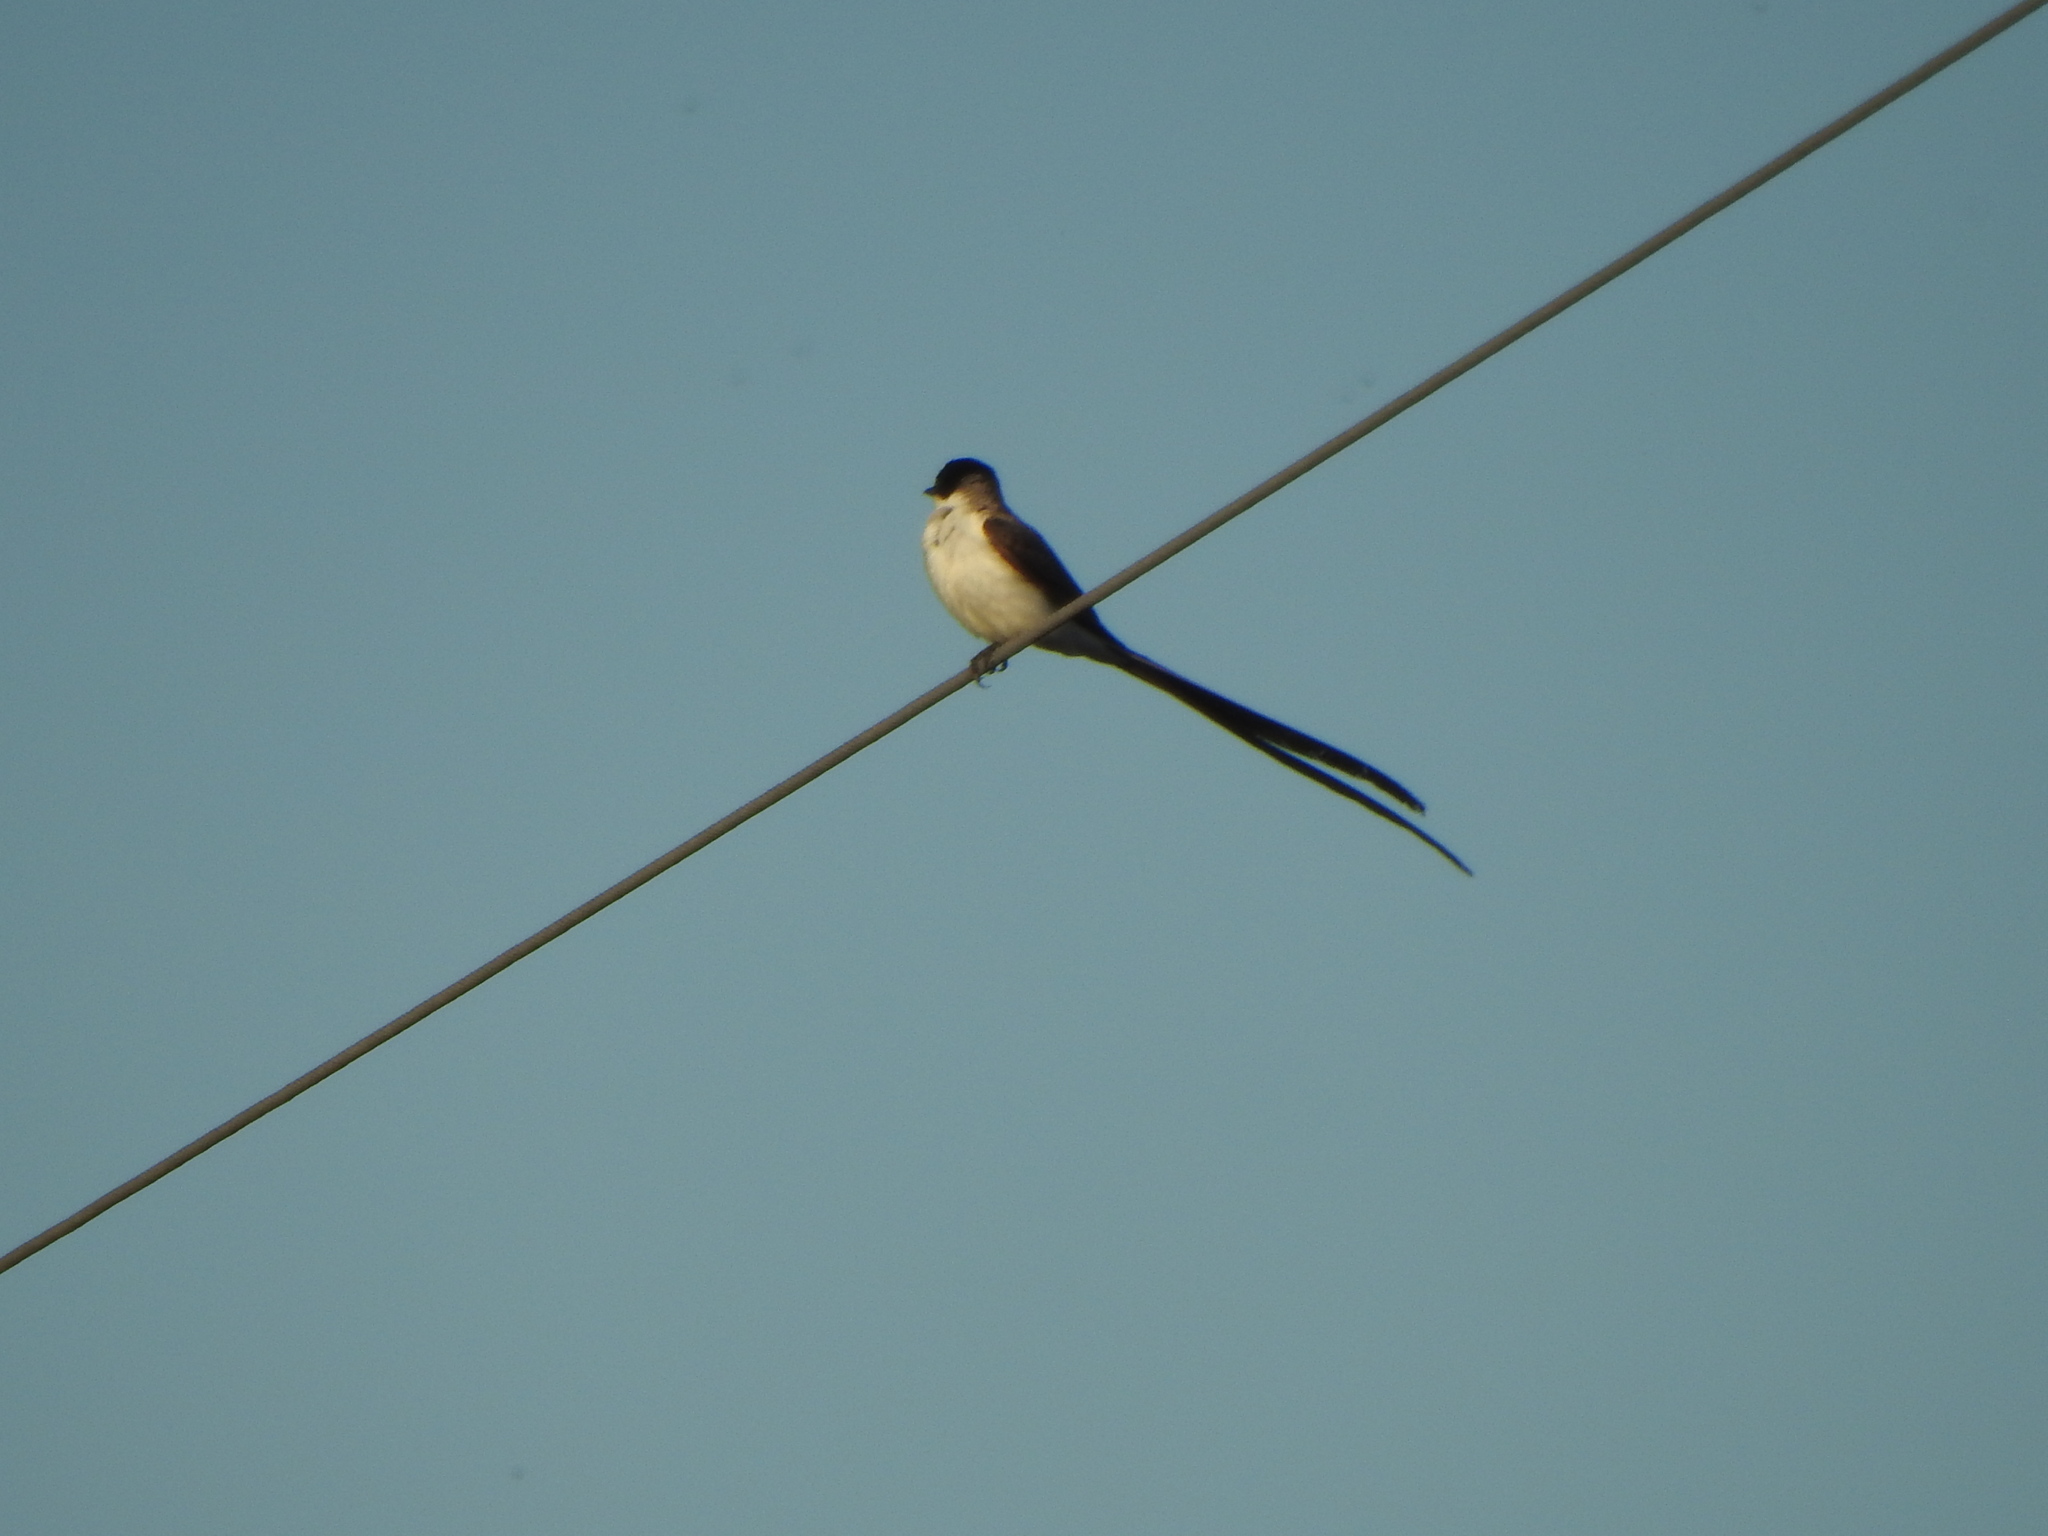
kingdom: Animalia
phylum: Chordata
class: Aves
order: Passeriformes
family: Tyrannidae
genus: Tyrannus
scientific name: Tyrannus savana
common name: Fork-tailed flycatcher
